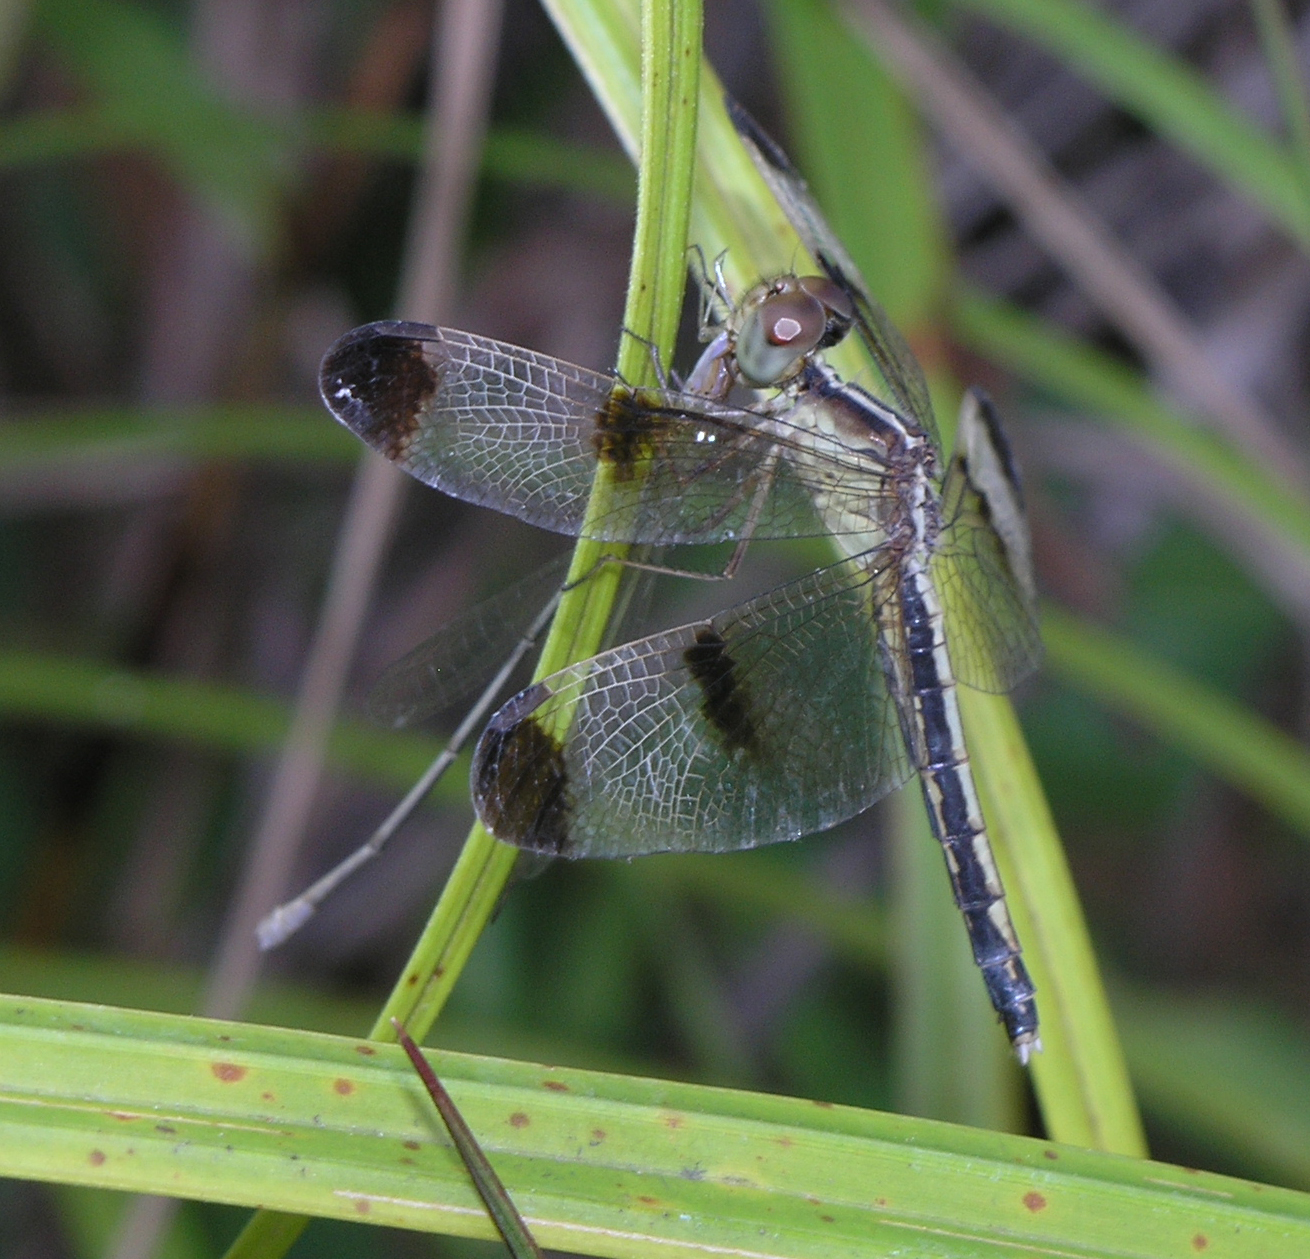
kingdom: Animalia
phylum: Arthropoda
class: Insecta
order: Odonata
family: Libellulidae
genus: Neurothemis
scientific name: Neurothemis tullia
